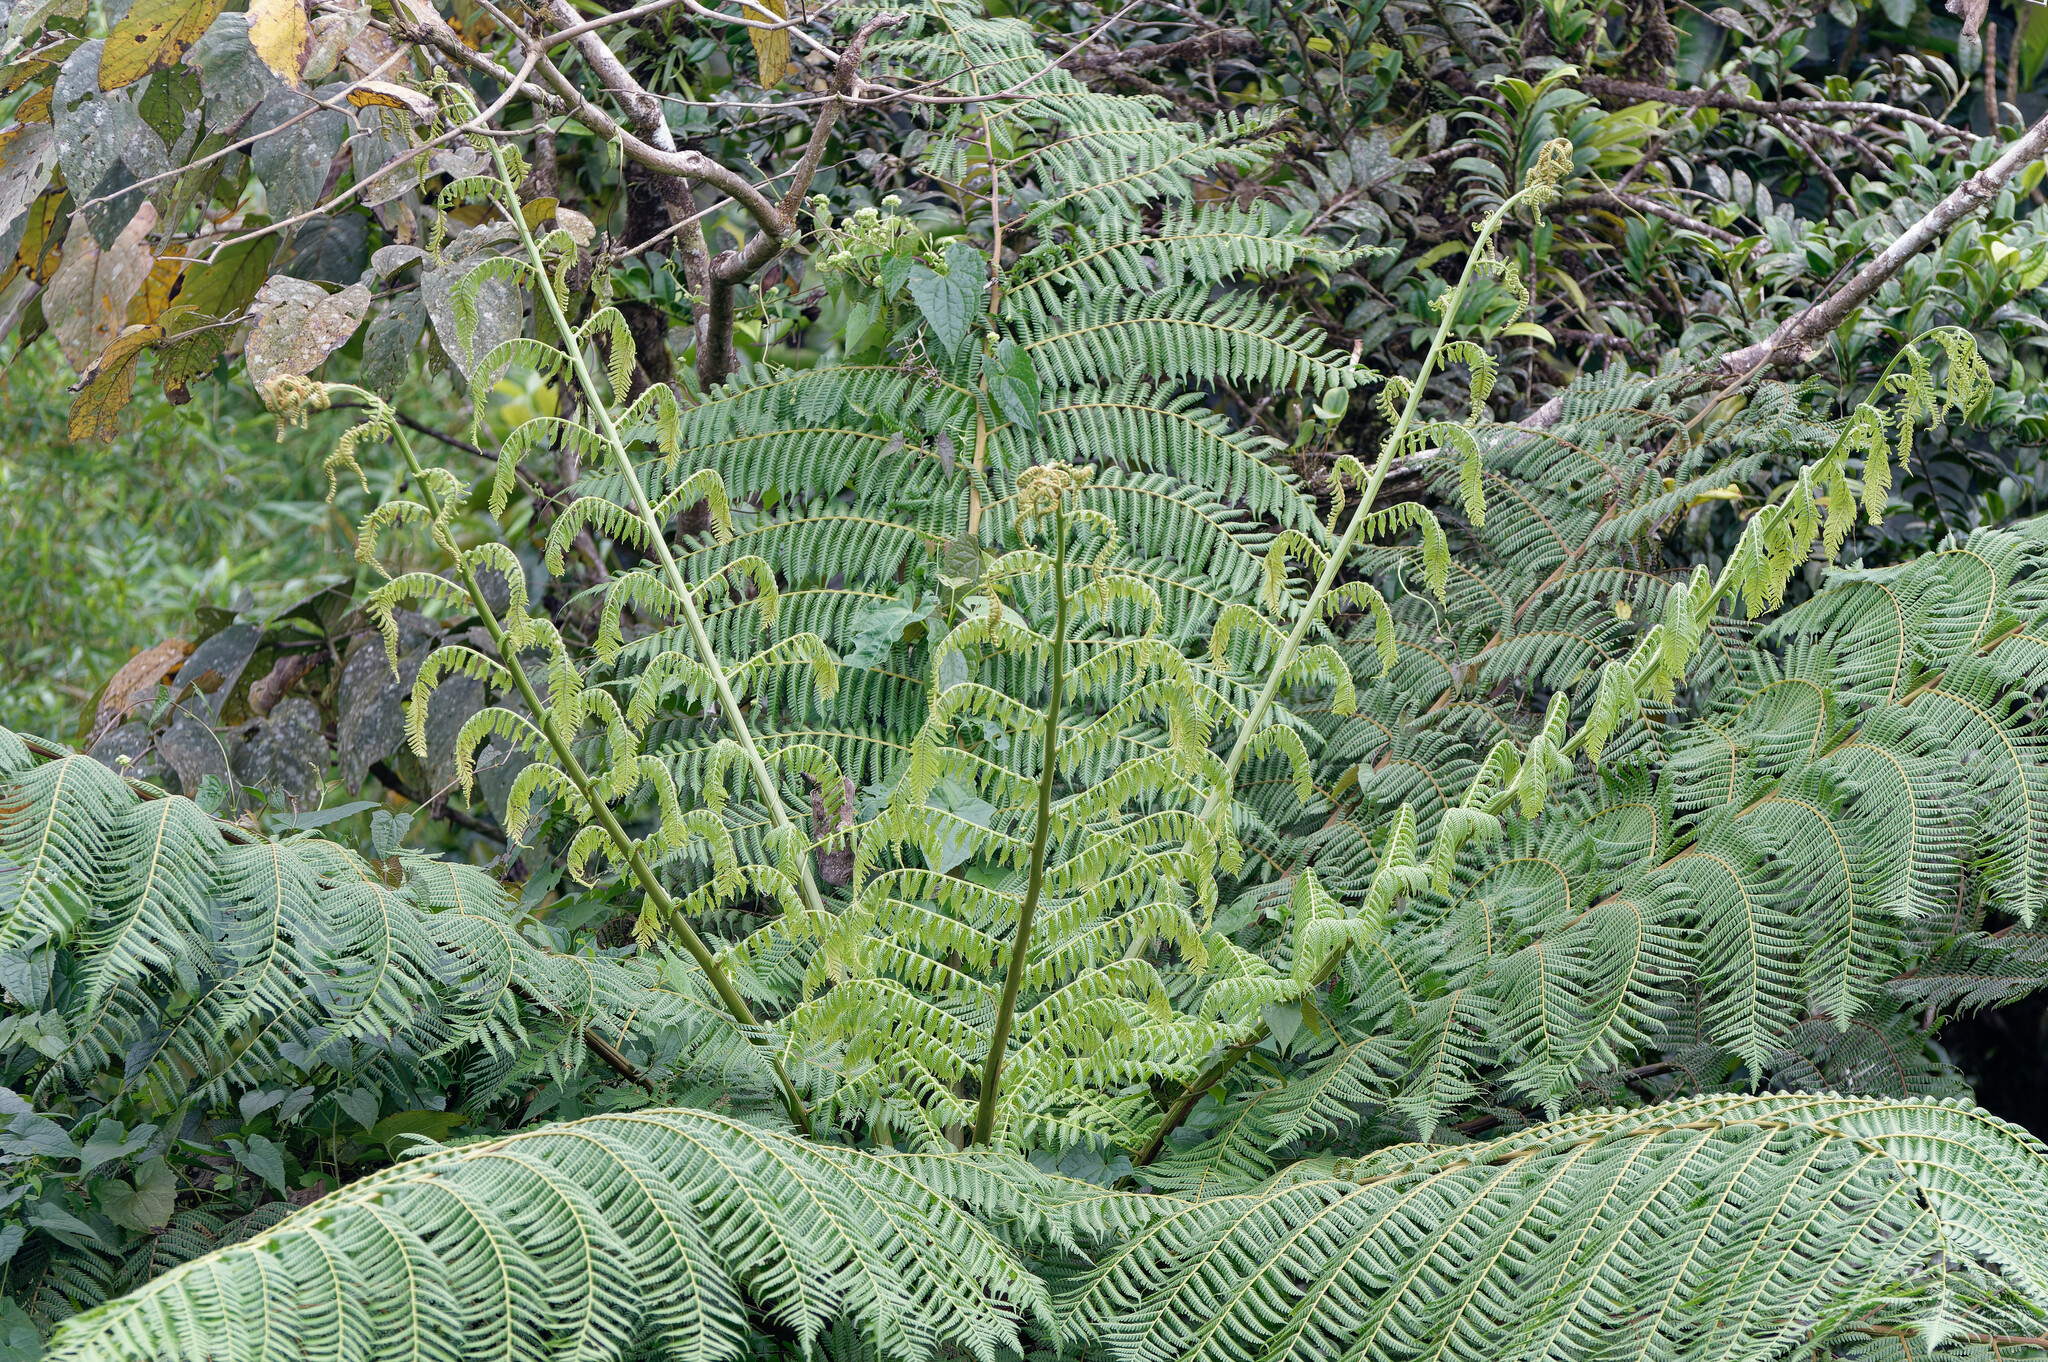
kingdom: Plantae
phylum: Tracheophyta
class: Polypodiopsida
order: Cyatheales
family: Cyatheaceae
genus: Cyathea
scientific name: Cyathea arborea
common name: West indian treefern
